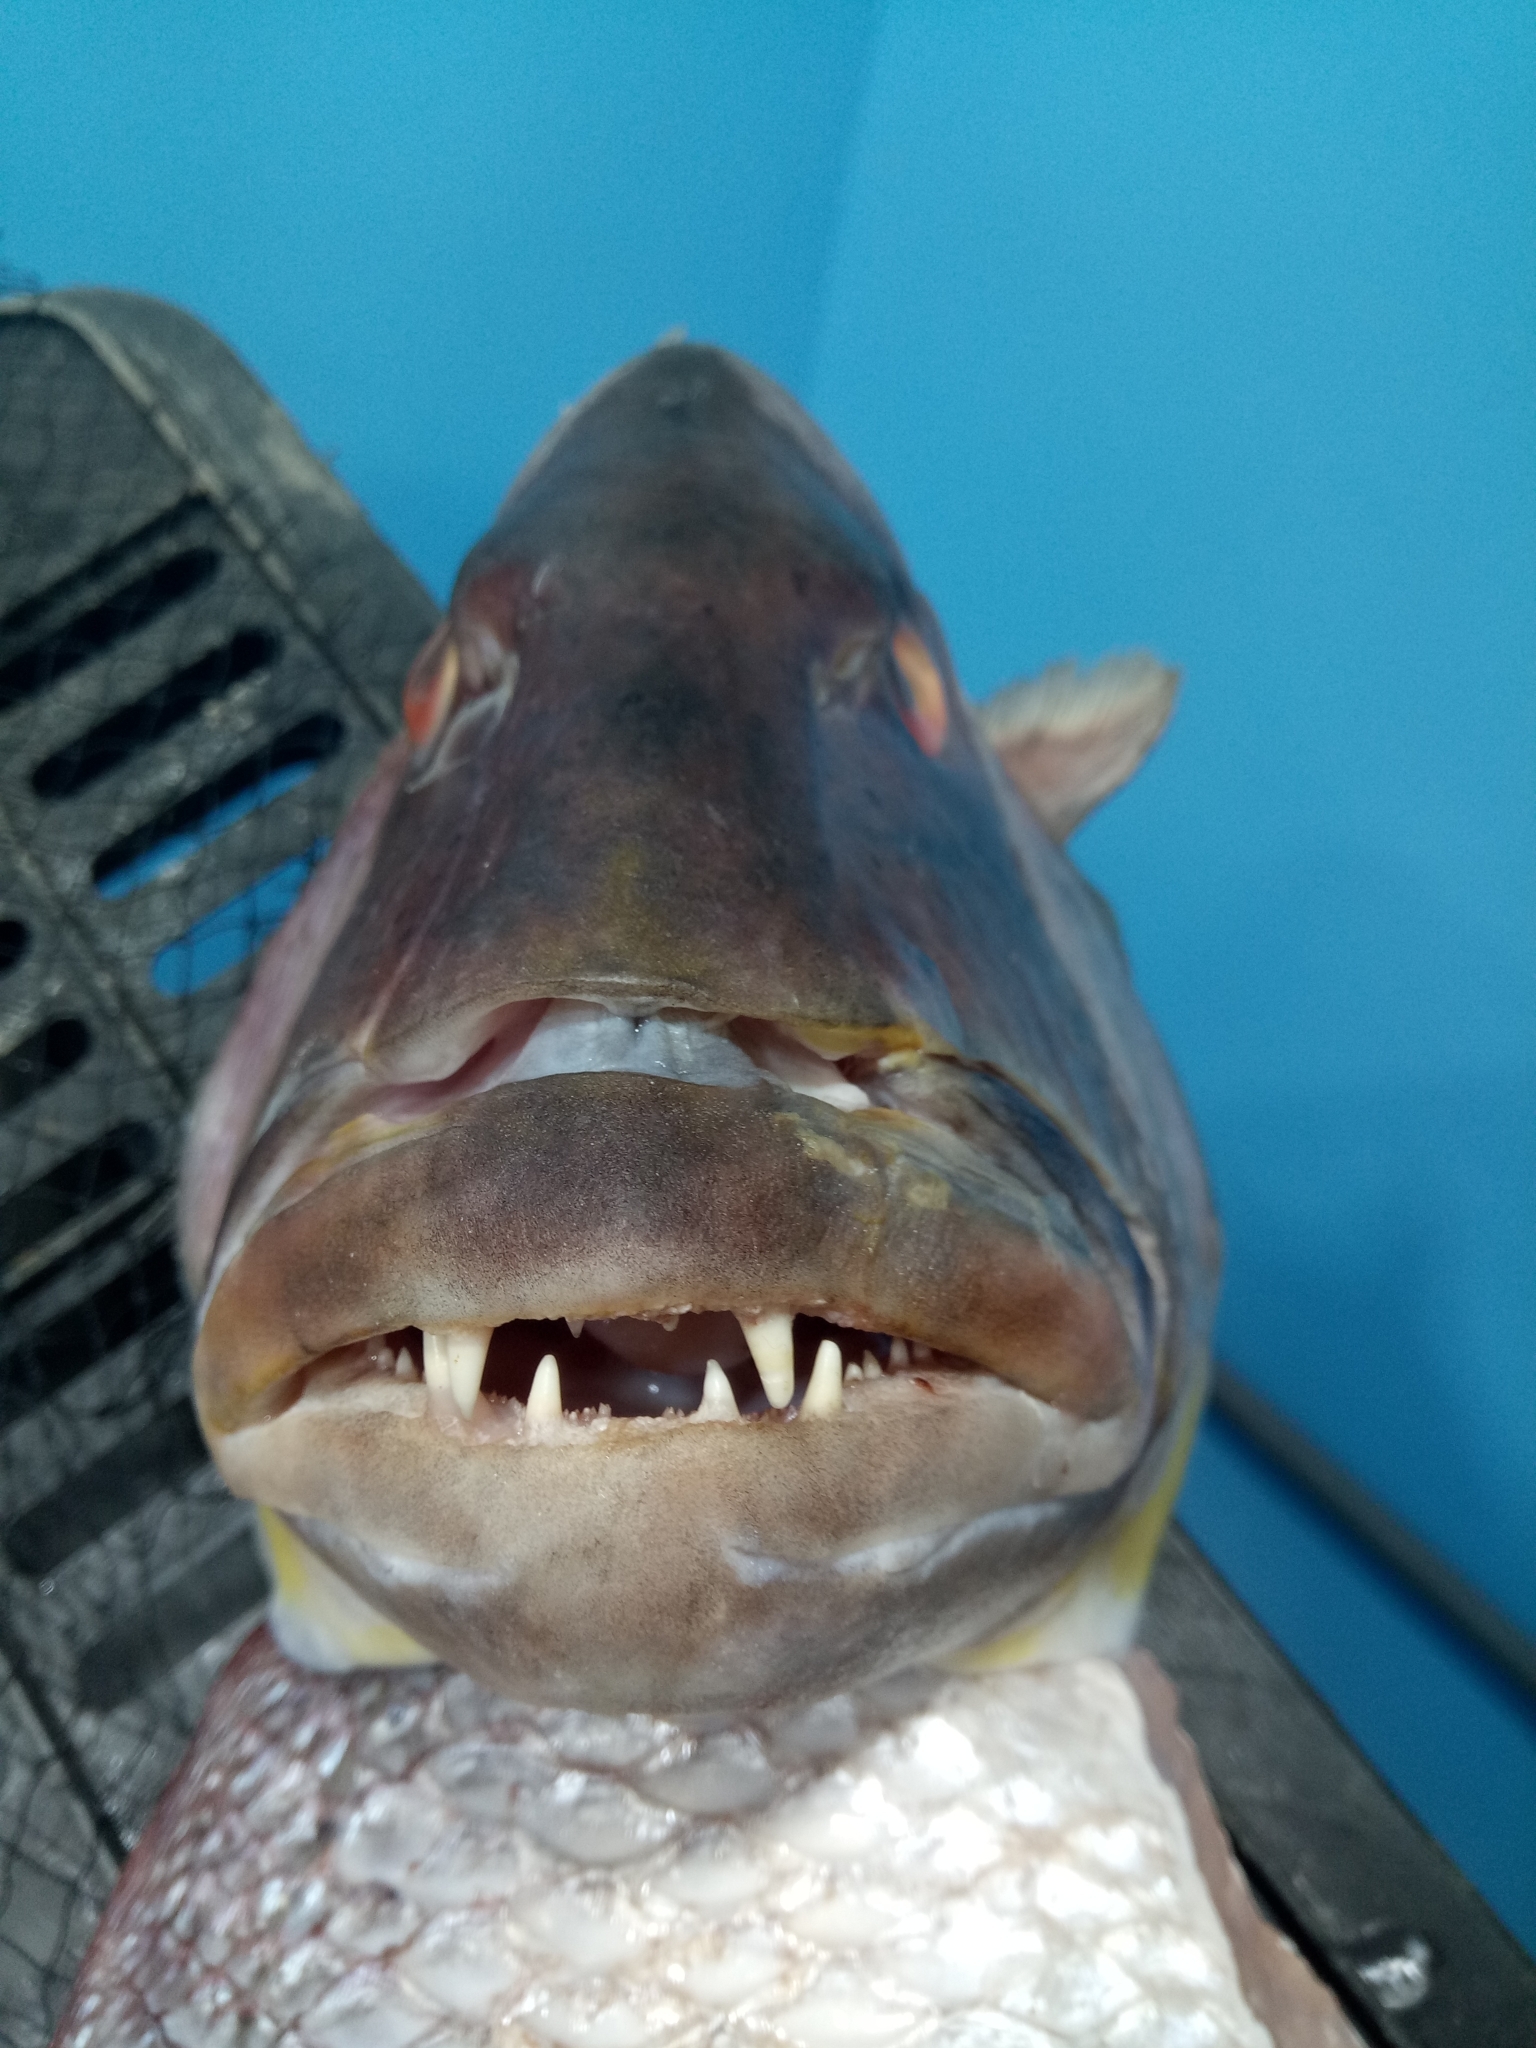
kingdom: Animalia
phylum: Chordata
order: Perciformes
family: Sparidae
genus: Dentex
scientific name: Dentex dentex
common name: Dentex
